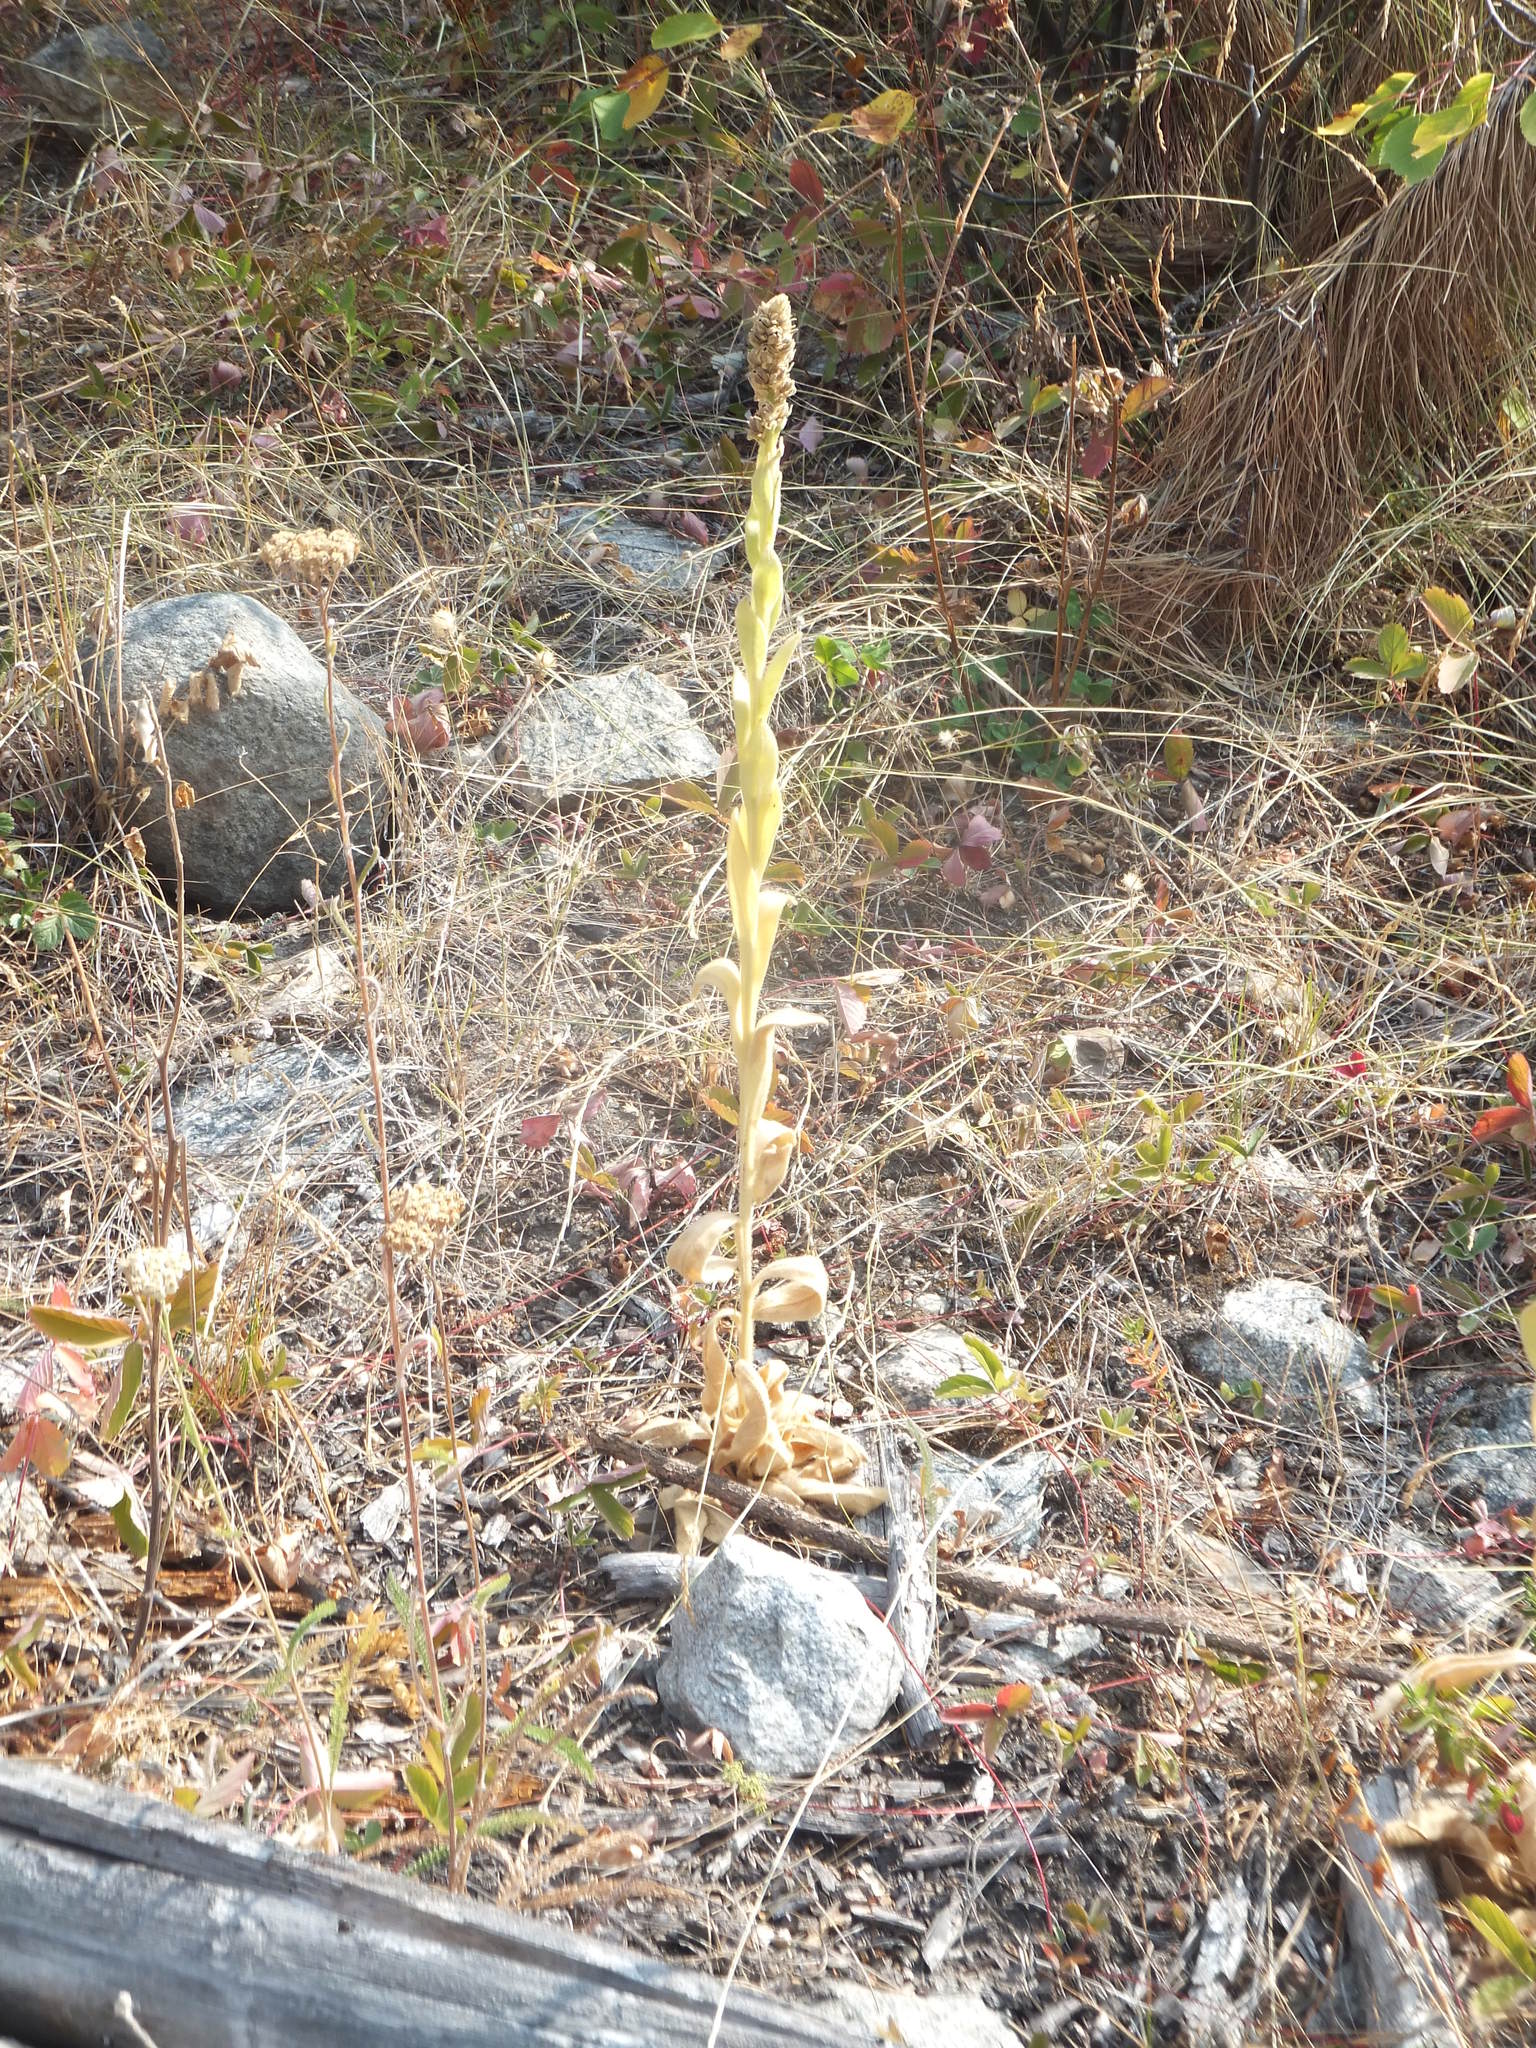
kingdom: Plantae
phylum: Tracheophyta
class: Magnoliopsida
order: Lamiales
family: Scrophulariaceae
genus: Verbascum
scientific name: Verbascum thapsus
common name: Common mullein
